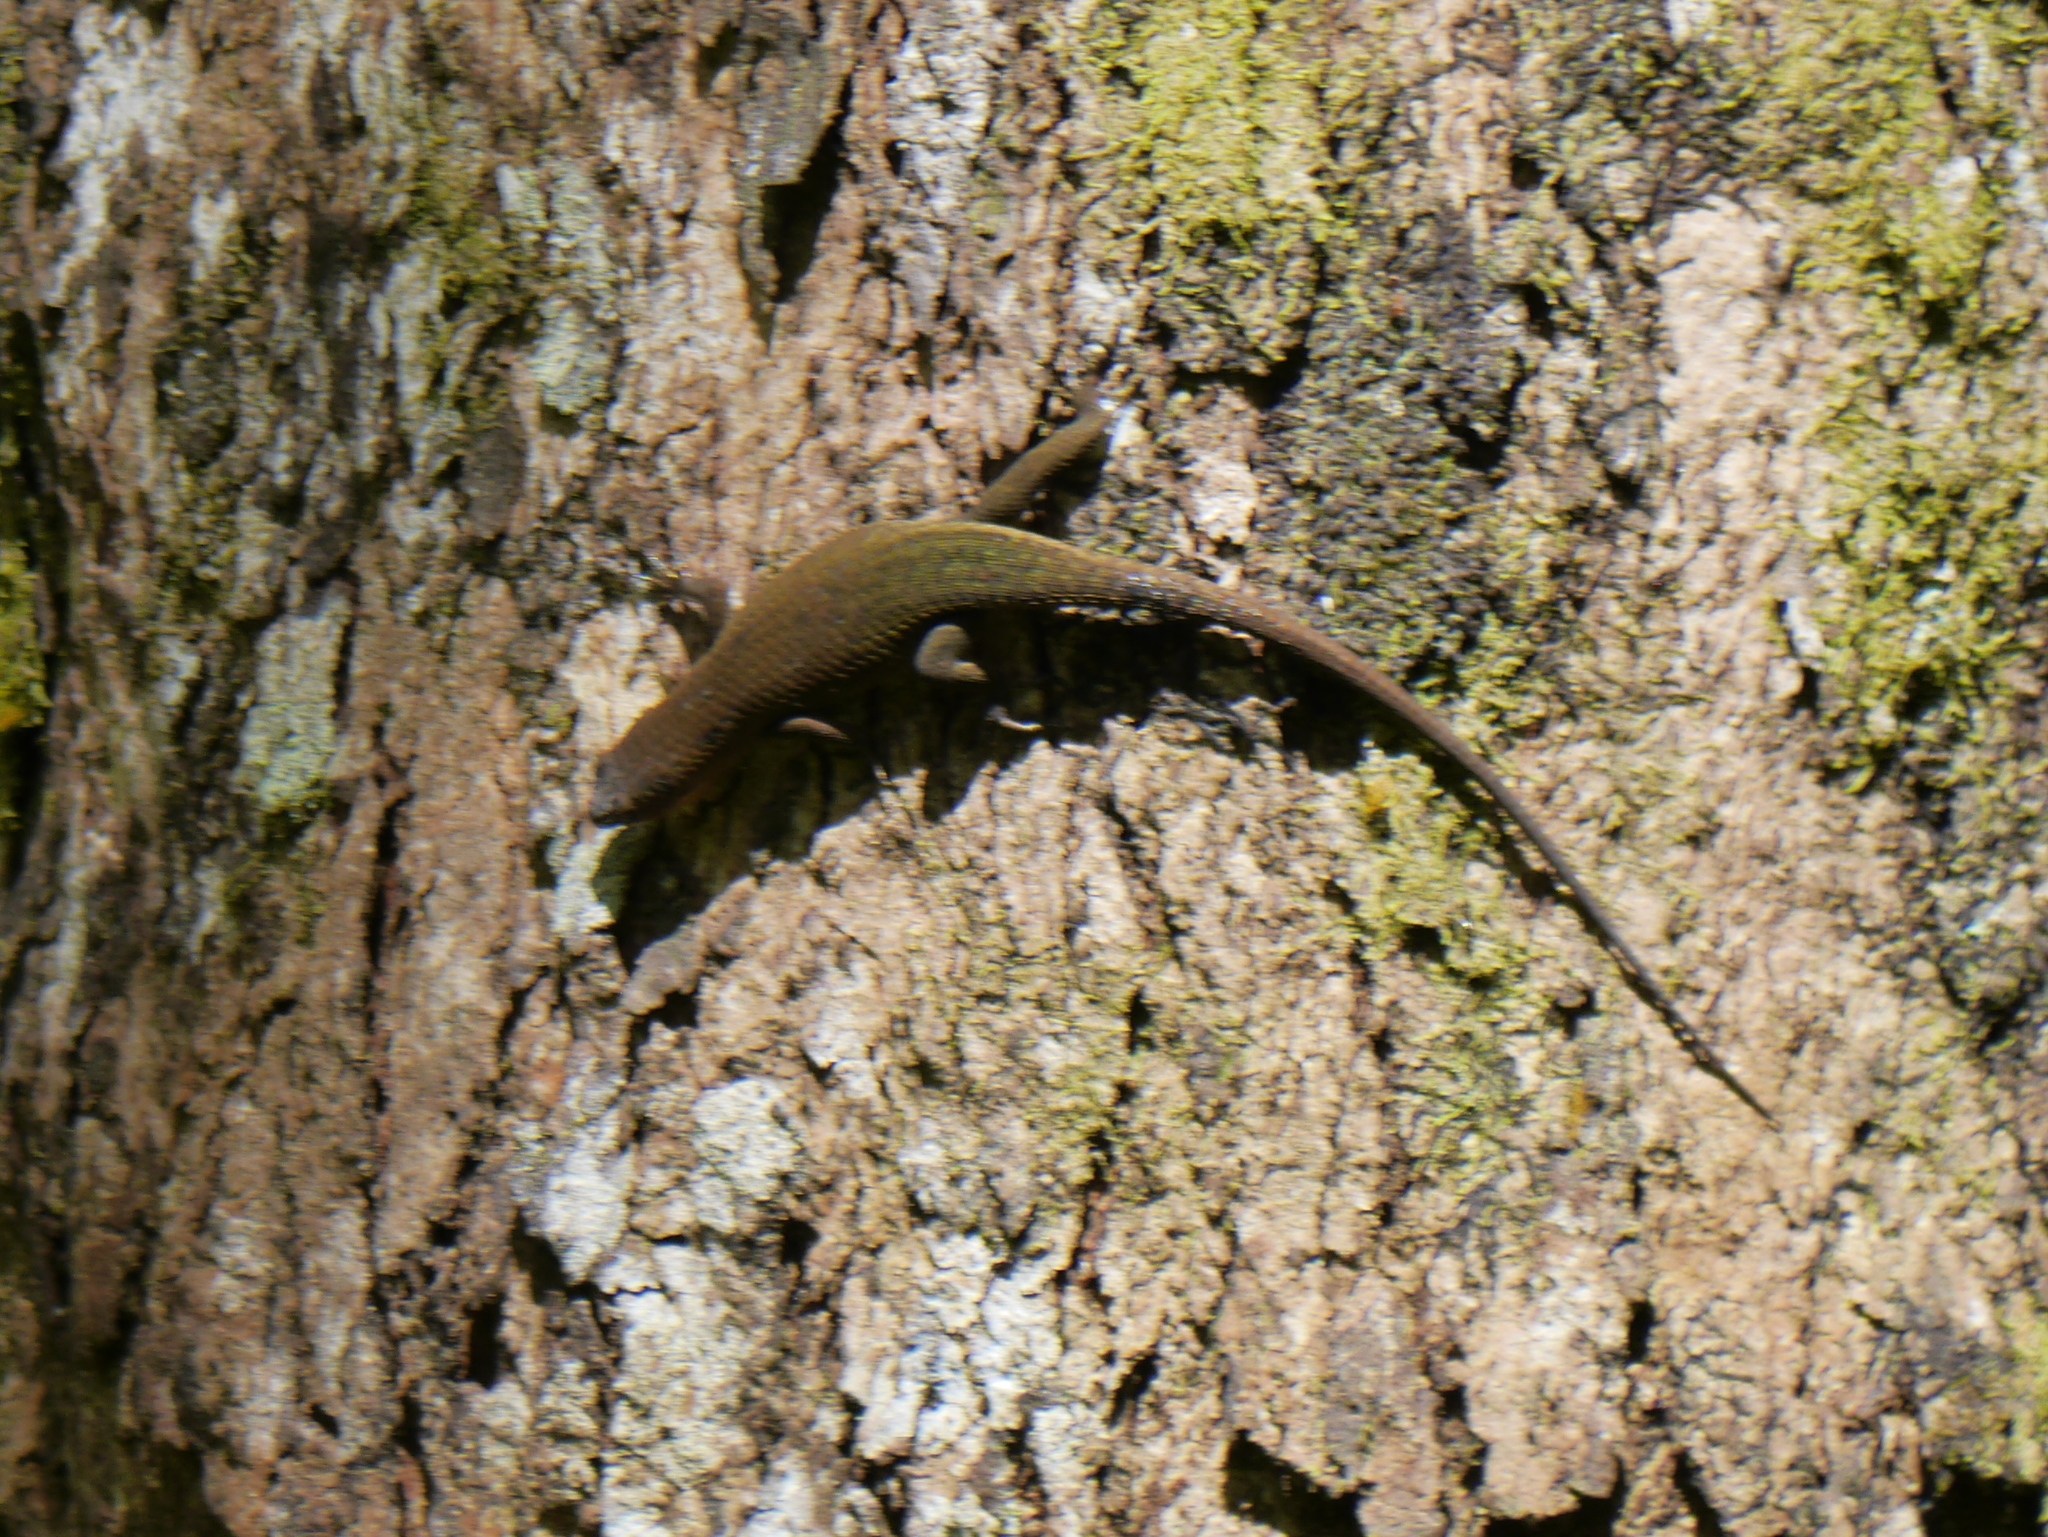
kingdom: Animalia
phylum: Chordata
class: Squamata
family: Scincidae
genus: Eutropis
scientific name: Eutropis rugifera
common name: Rough-scaled sun skink
